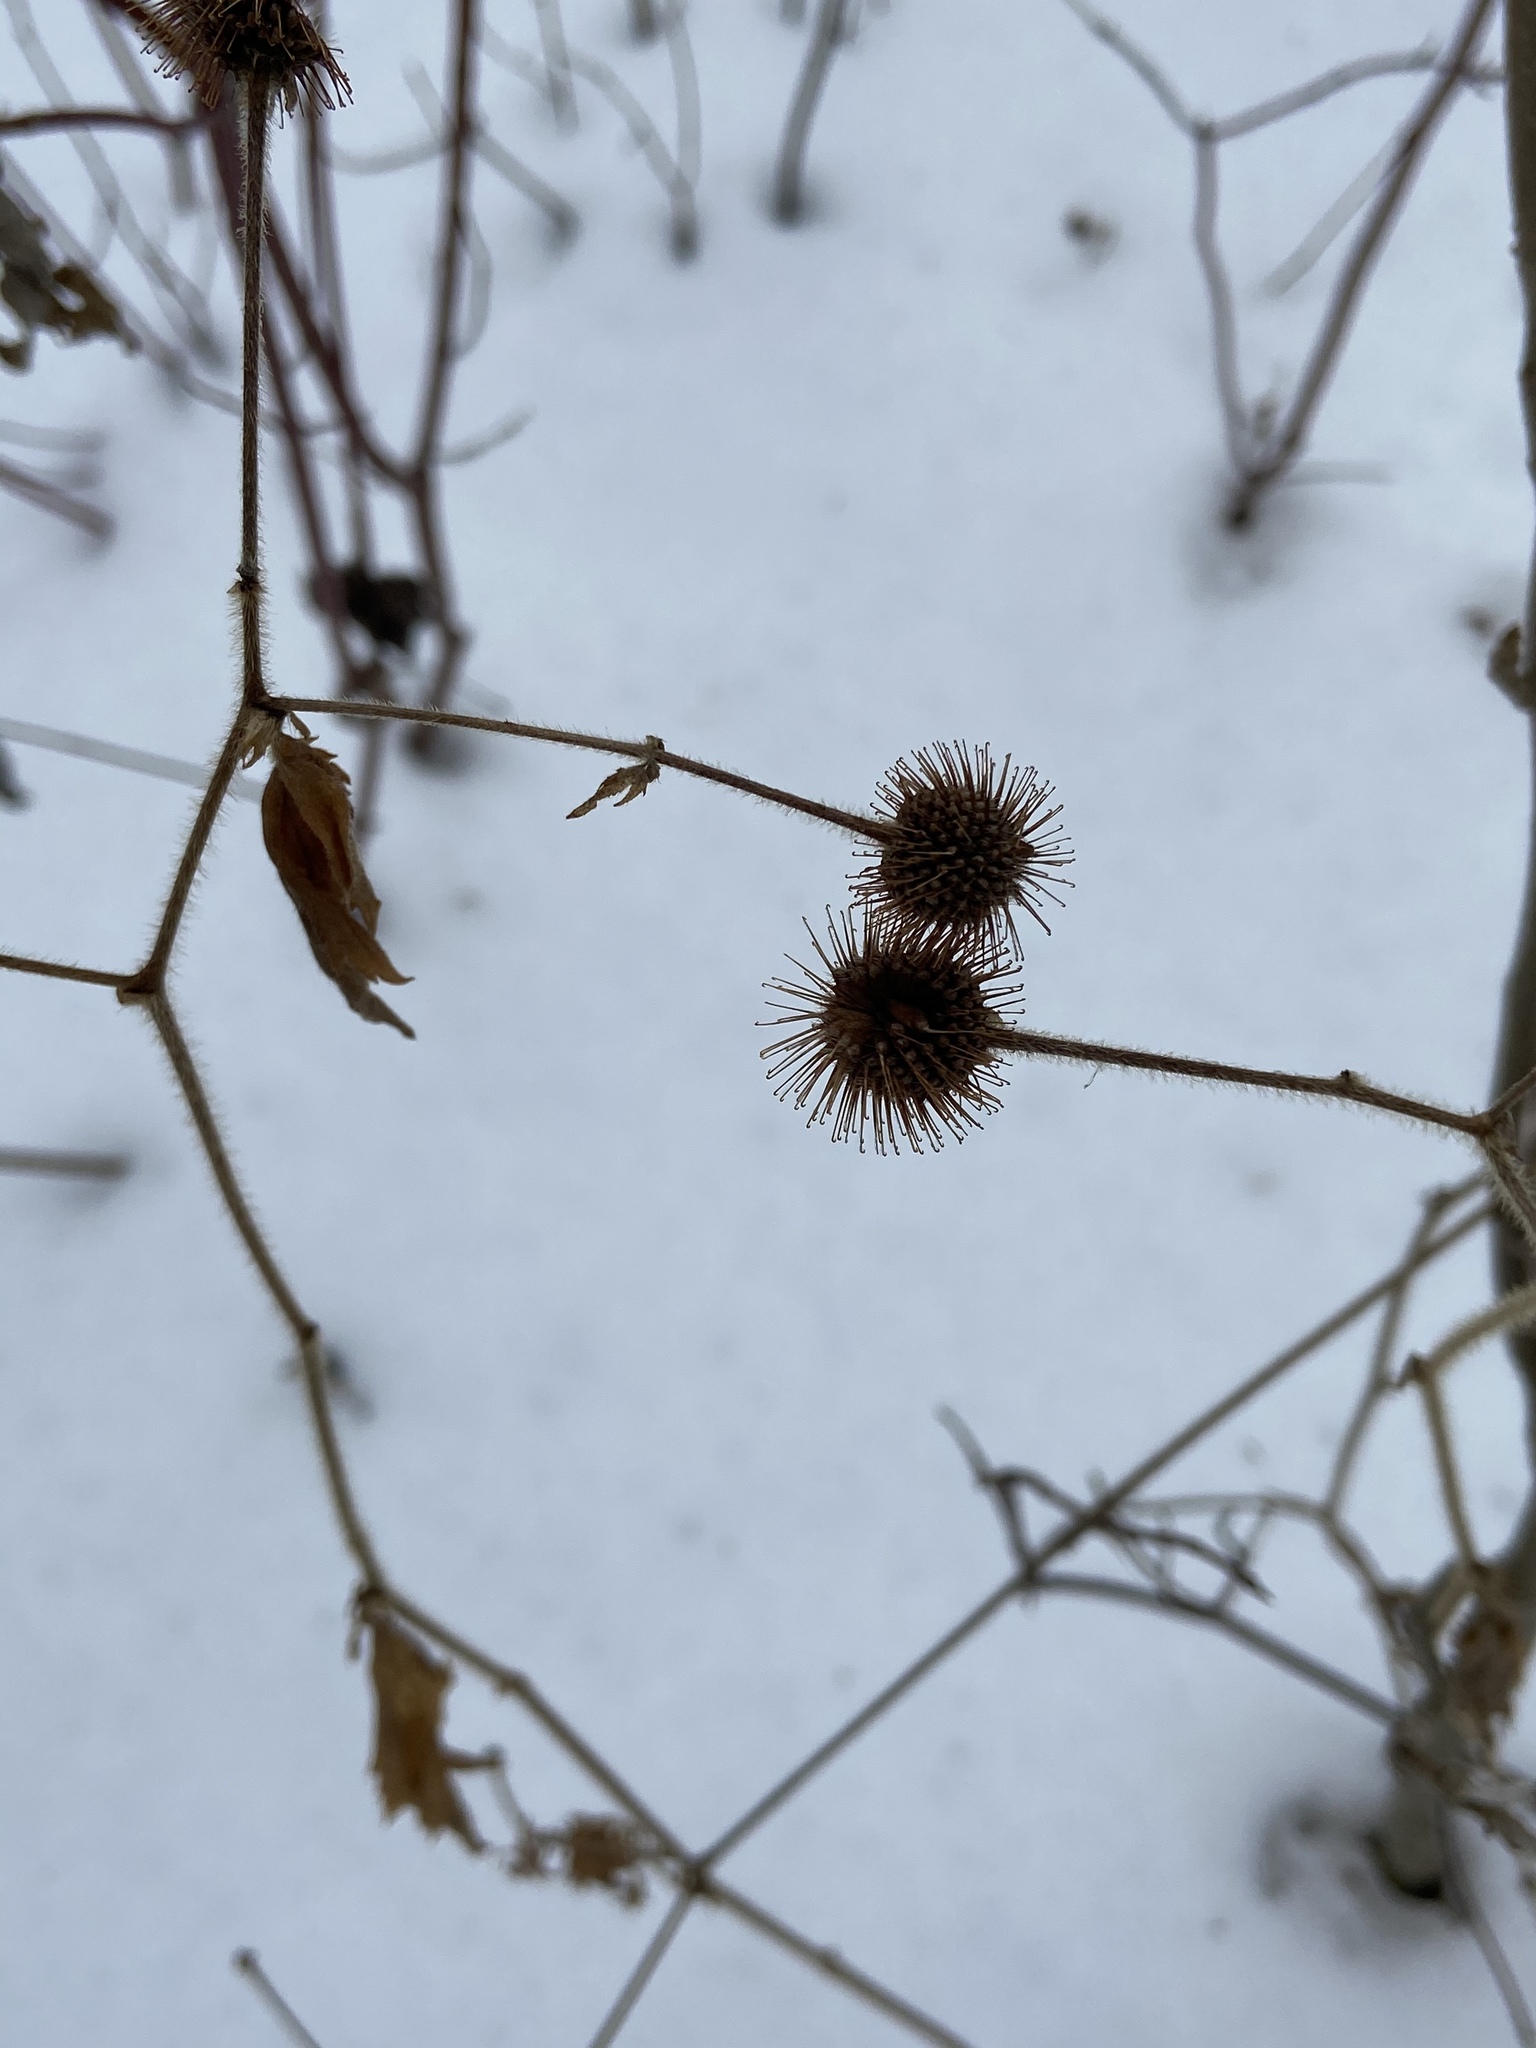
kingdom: Plantae
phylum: Tracheophyta
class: Magnoliopsida
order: Rosales
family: Rosaceae
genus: Geum
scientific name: Geum laciniatum
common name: Rough avens
